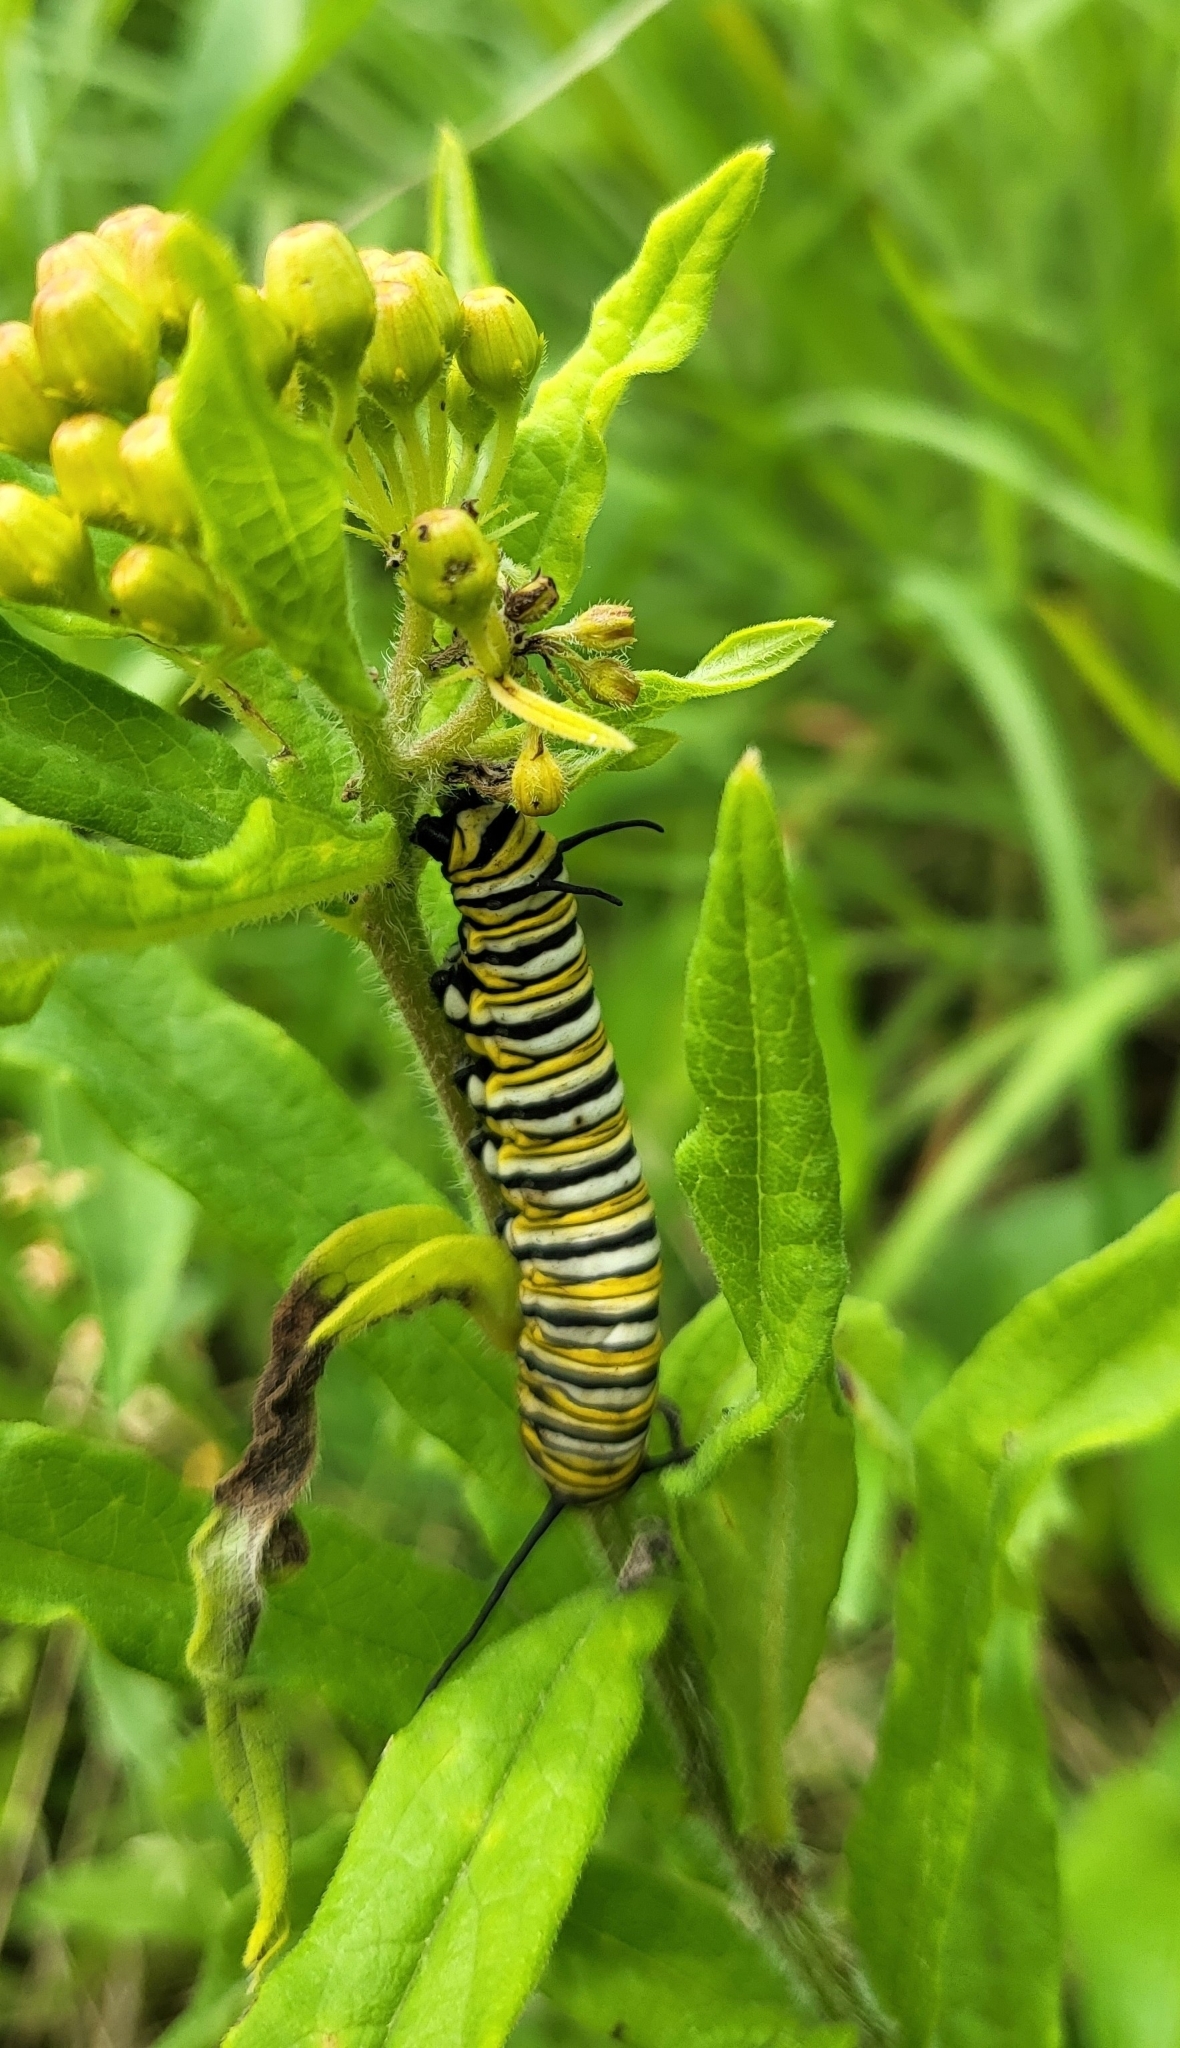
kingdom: Animalia
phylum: Arthropoda
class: Insecta
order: Lepidoptera
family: Nymphalidae
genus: Danaus
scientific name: Danaus plexippus
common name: Monarch
